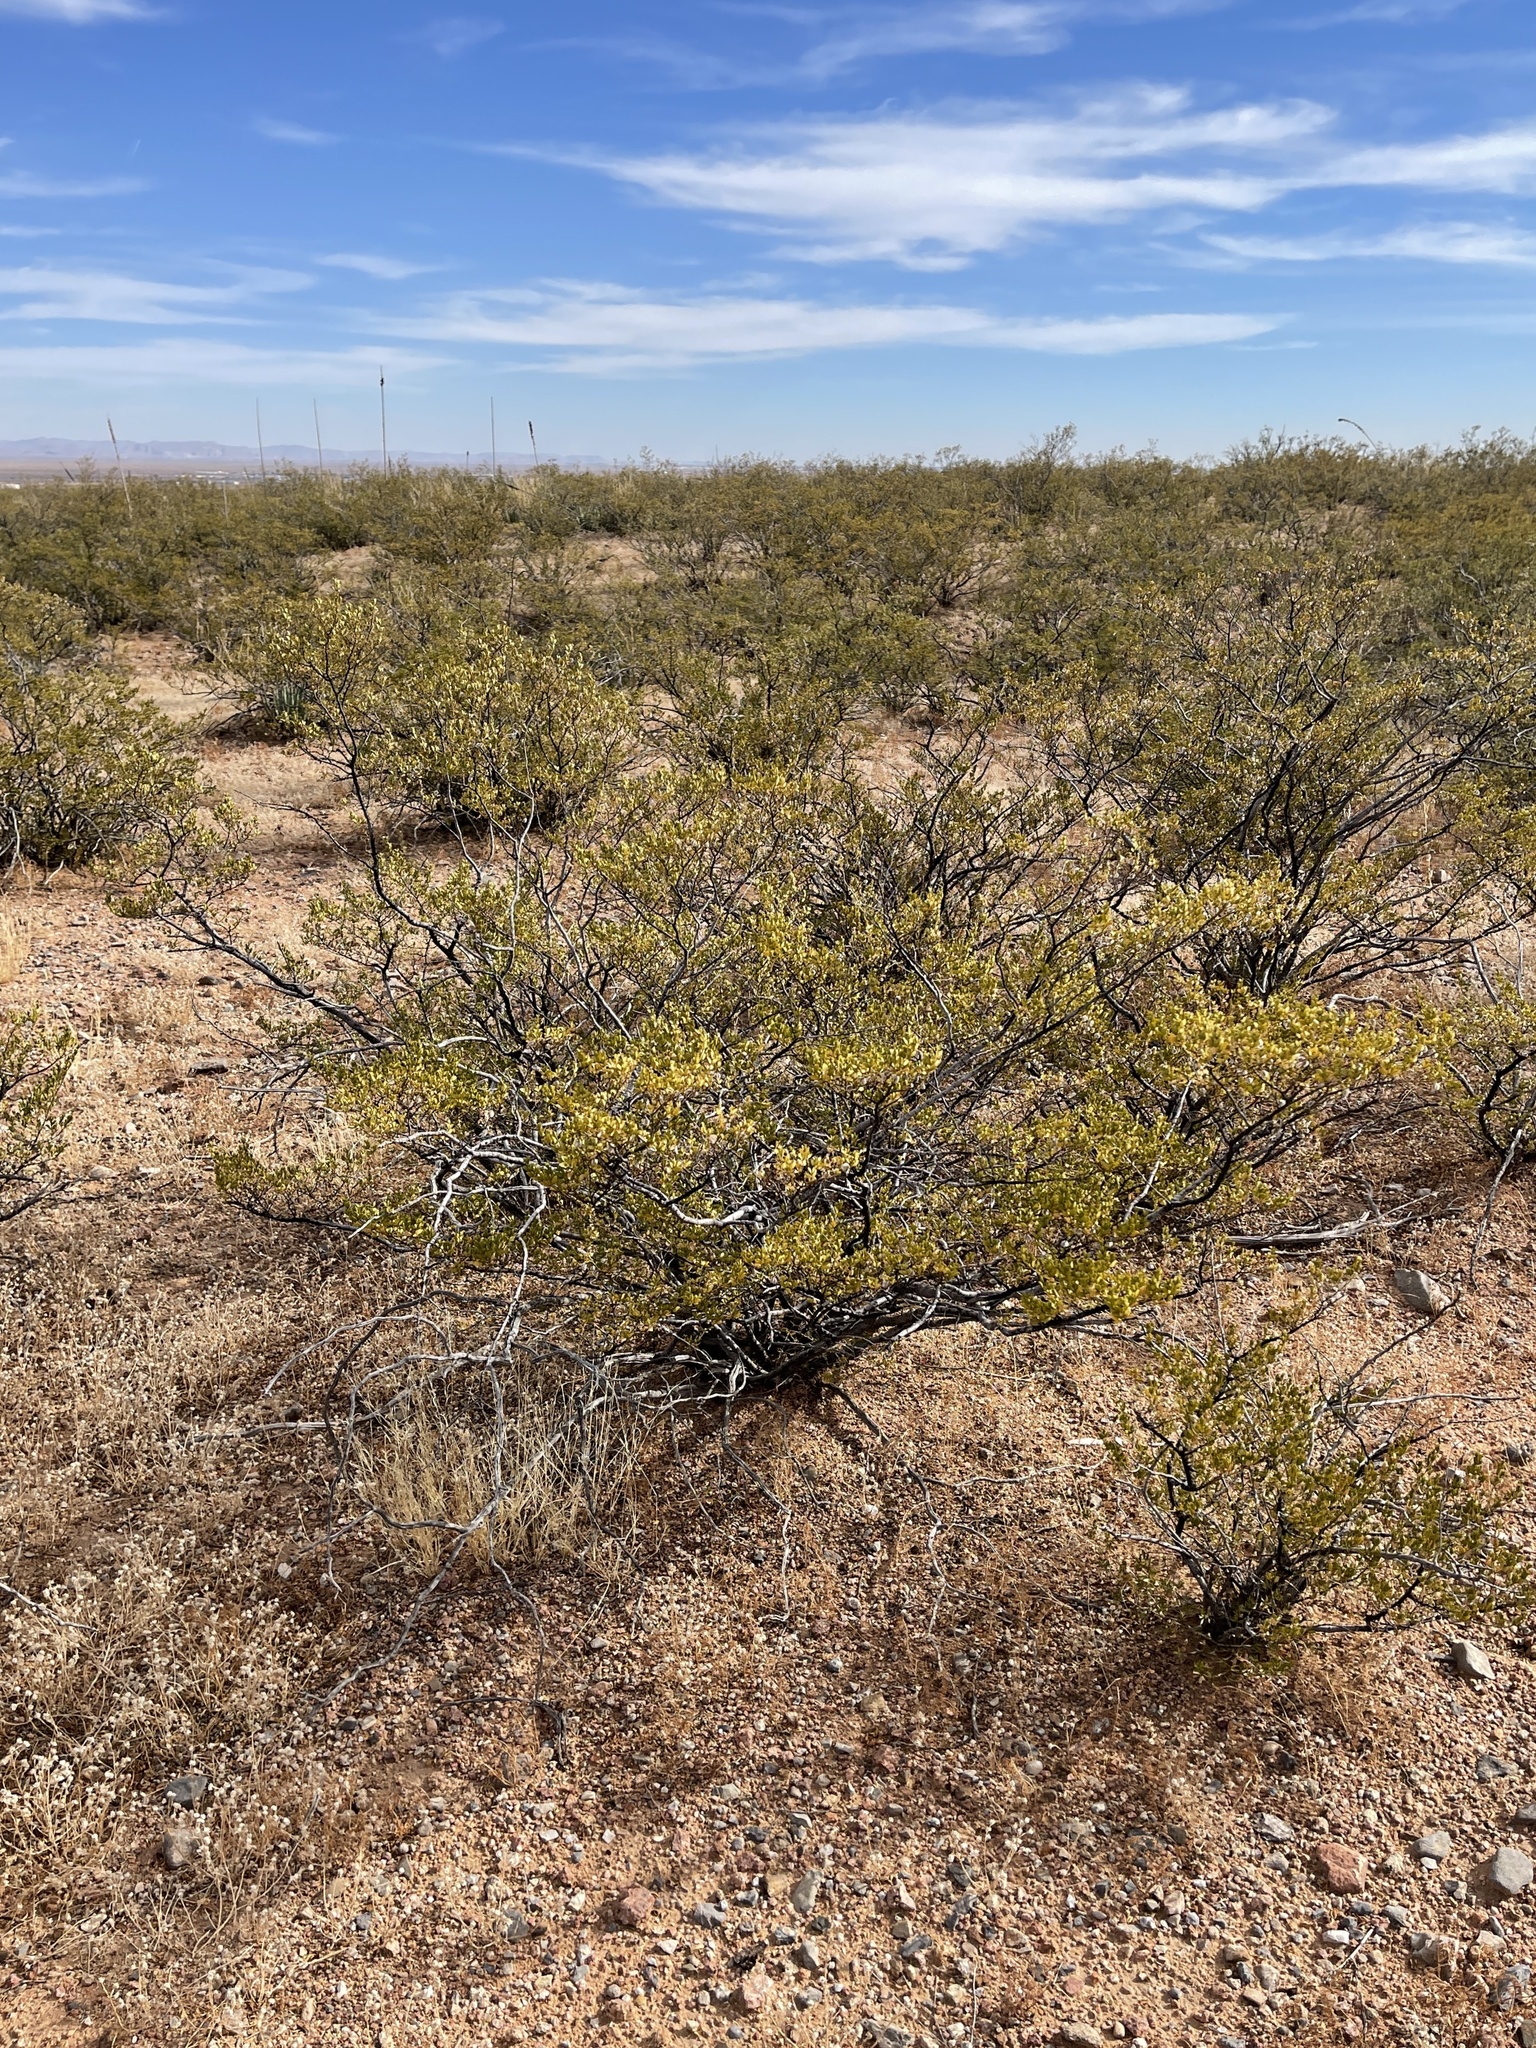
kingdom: Plantae
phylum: Tracheophyta
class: Magnoliopsida
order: Zygophyllales
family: Zygophyllaceae
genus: Larrea
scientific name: Larrea tridentata
